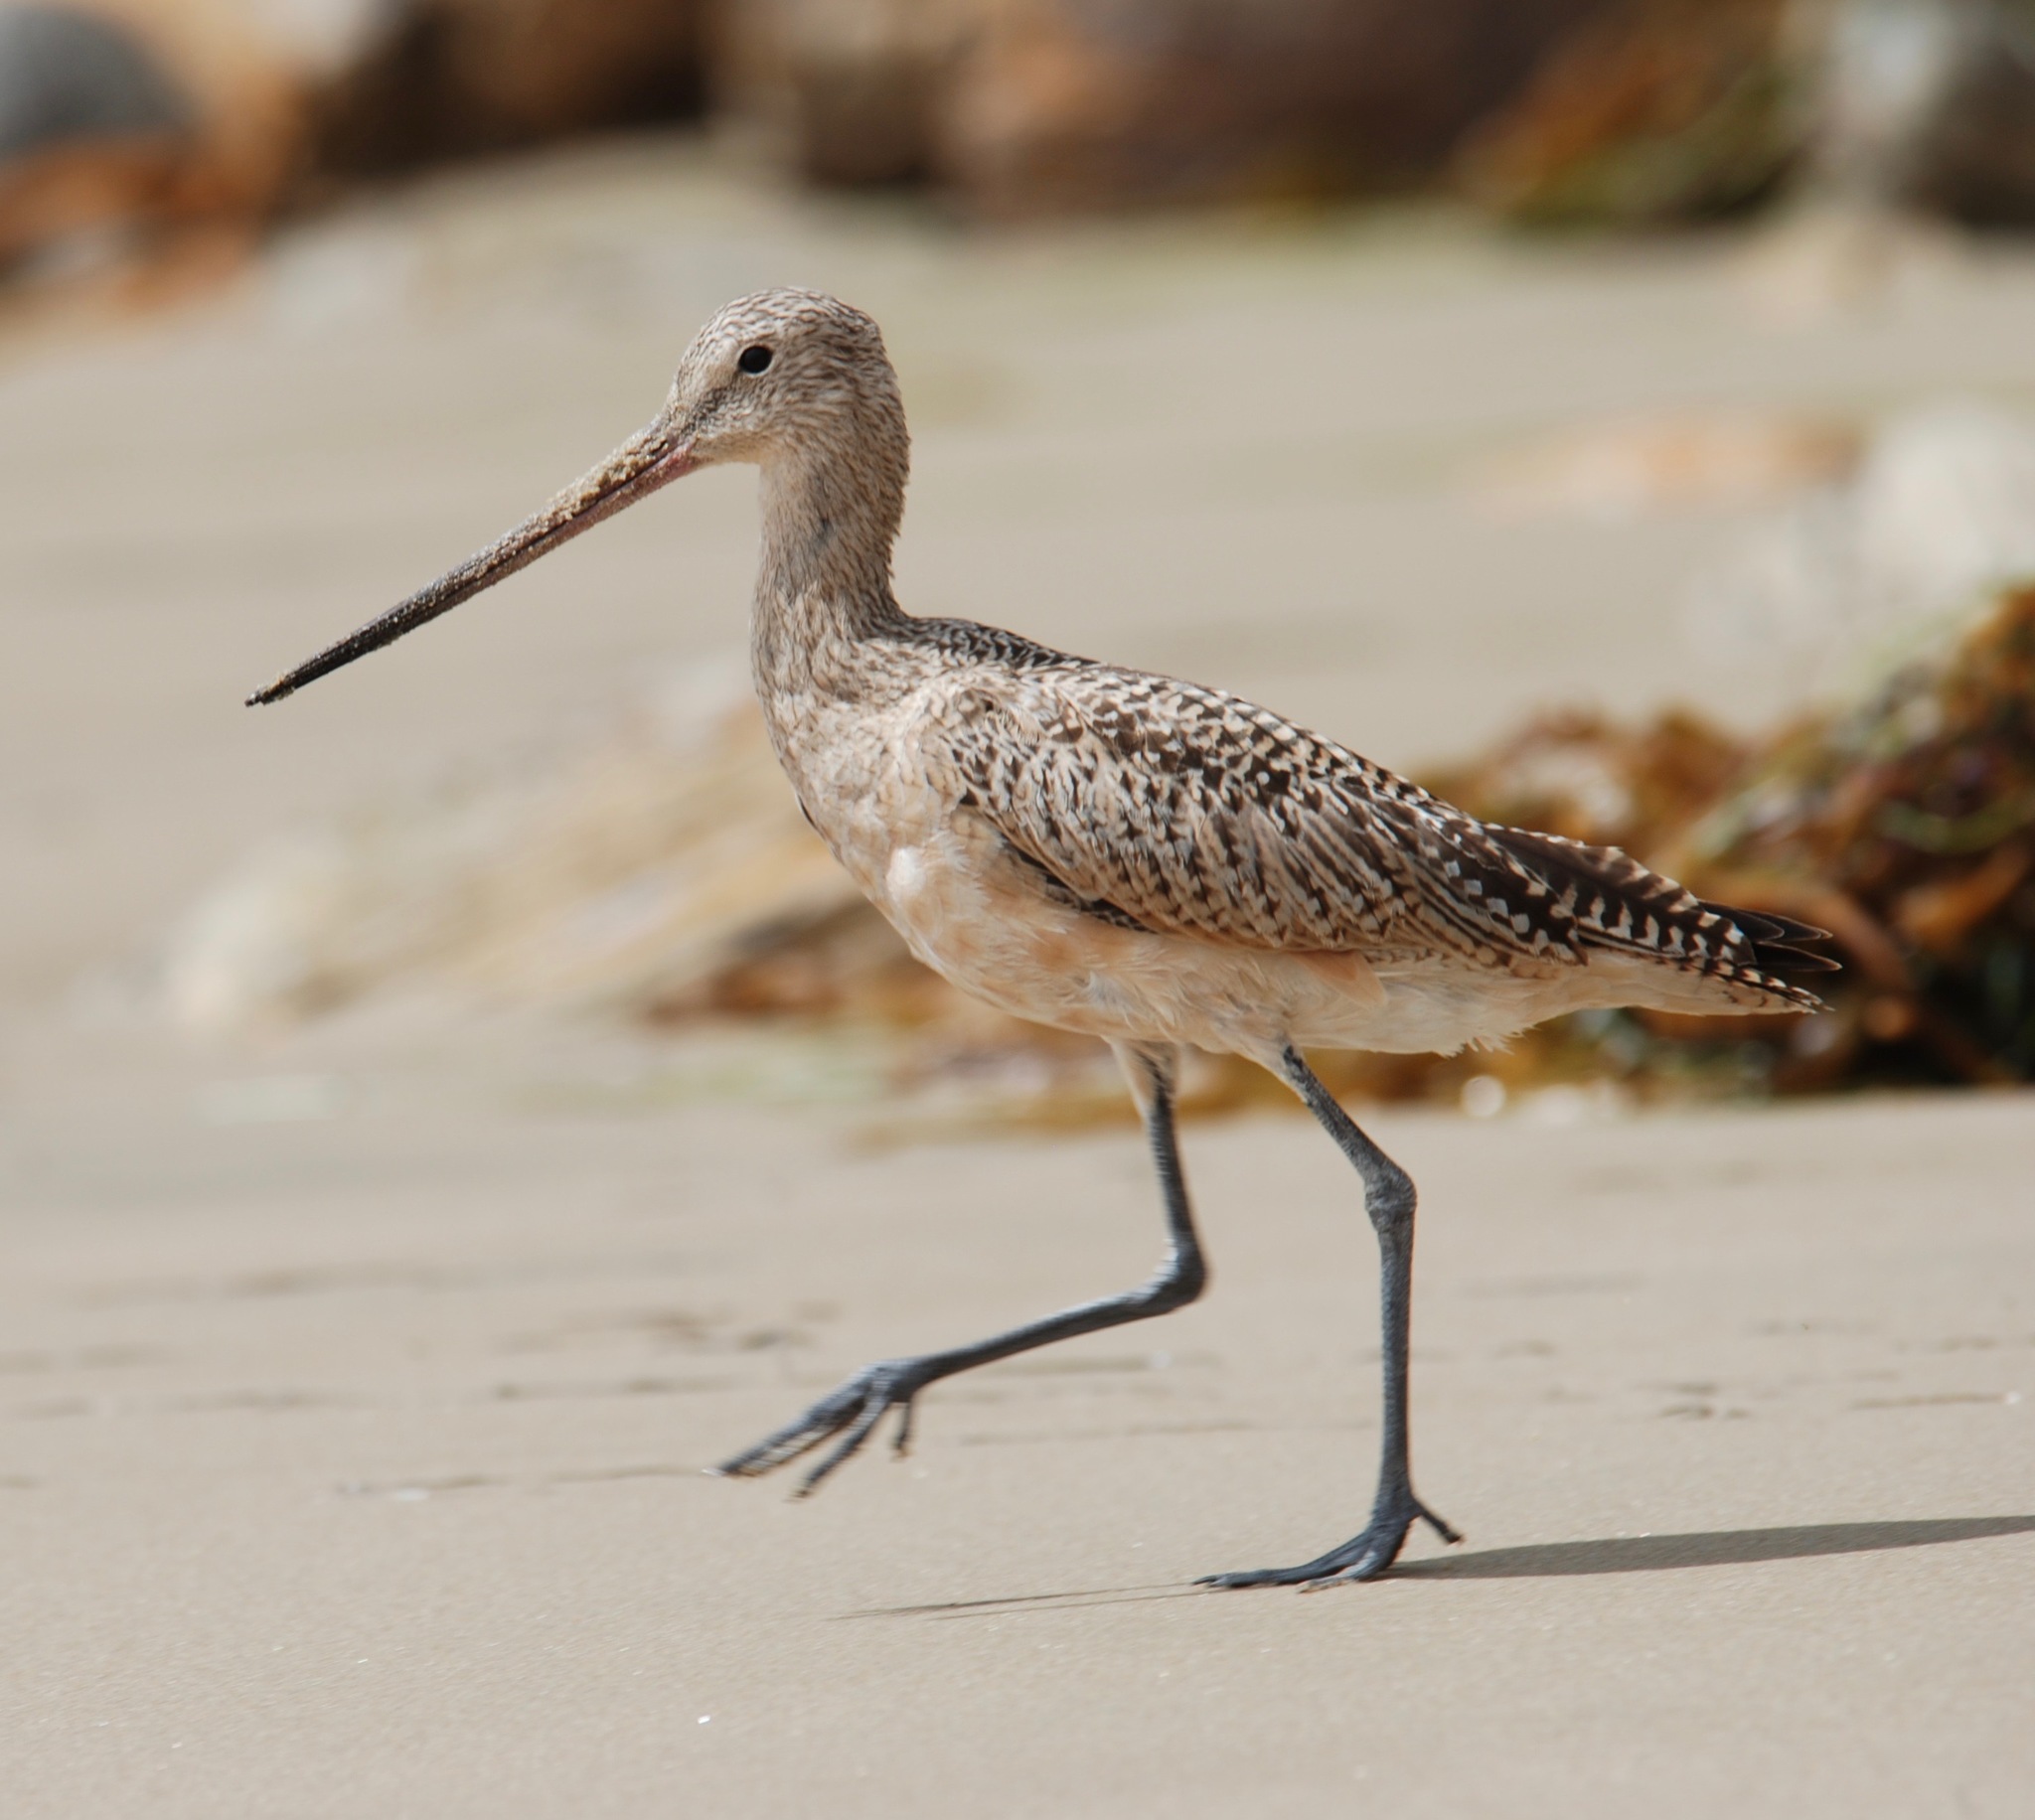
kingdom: Animalia
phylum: Chordata
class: Aves
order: Charadriiformes
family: Scolopacidae
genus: Limosa
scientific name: Limosa fedoa
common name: Marbled godwit
